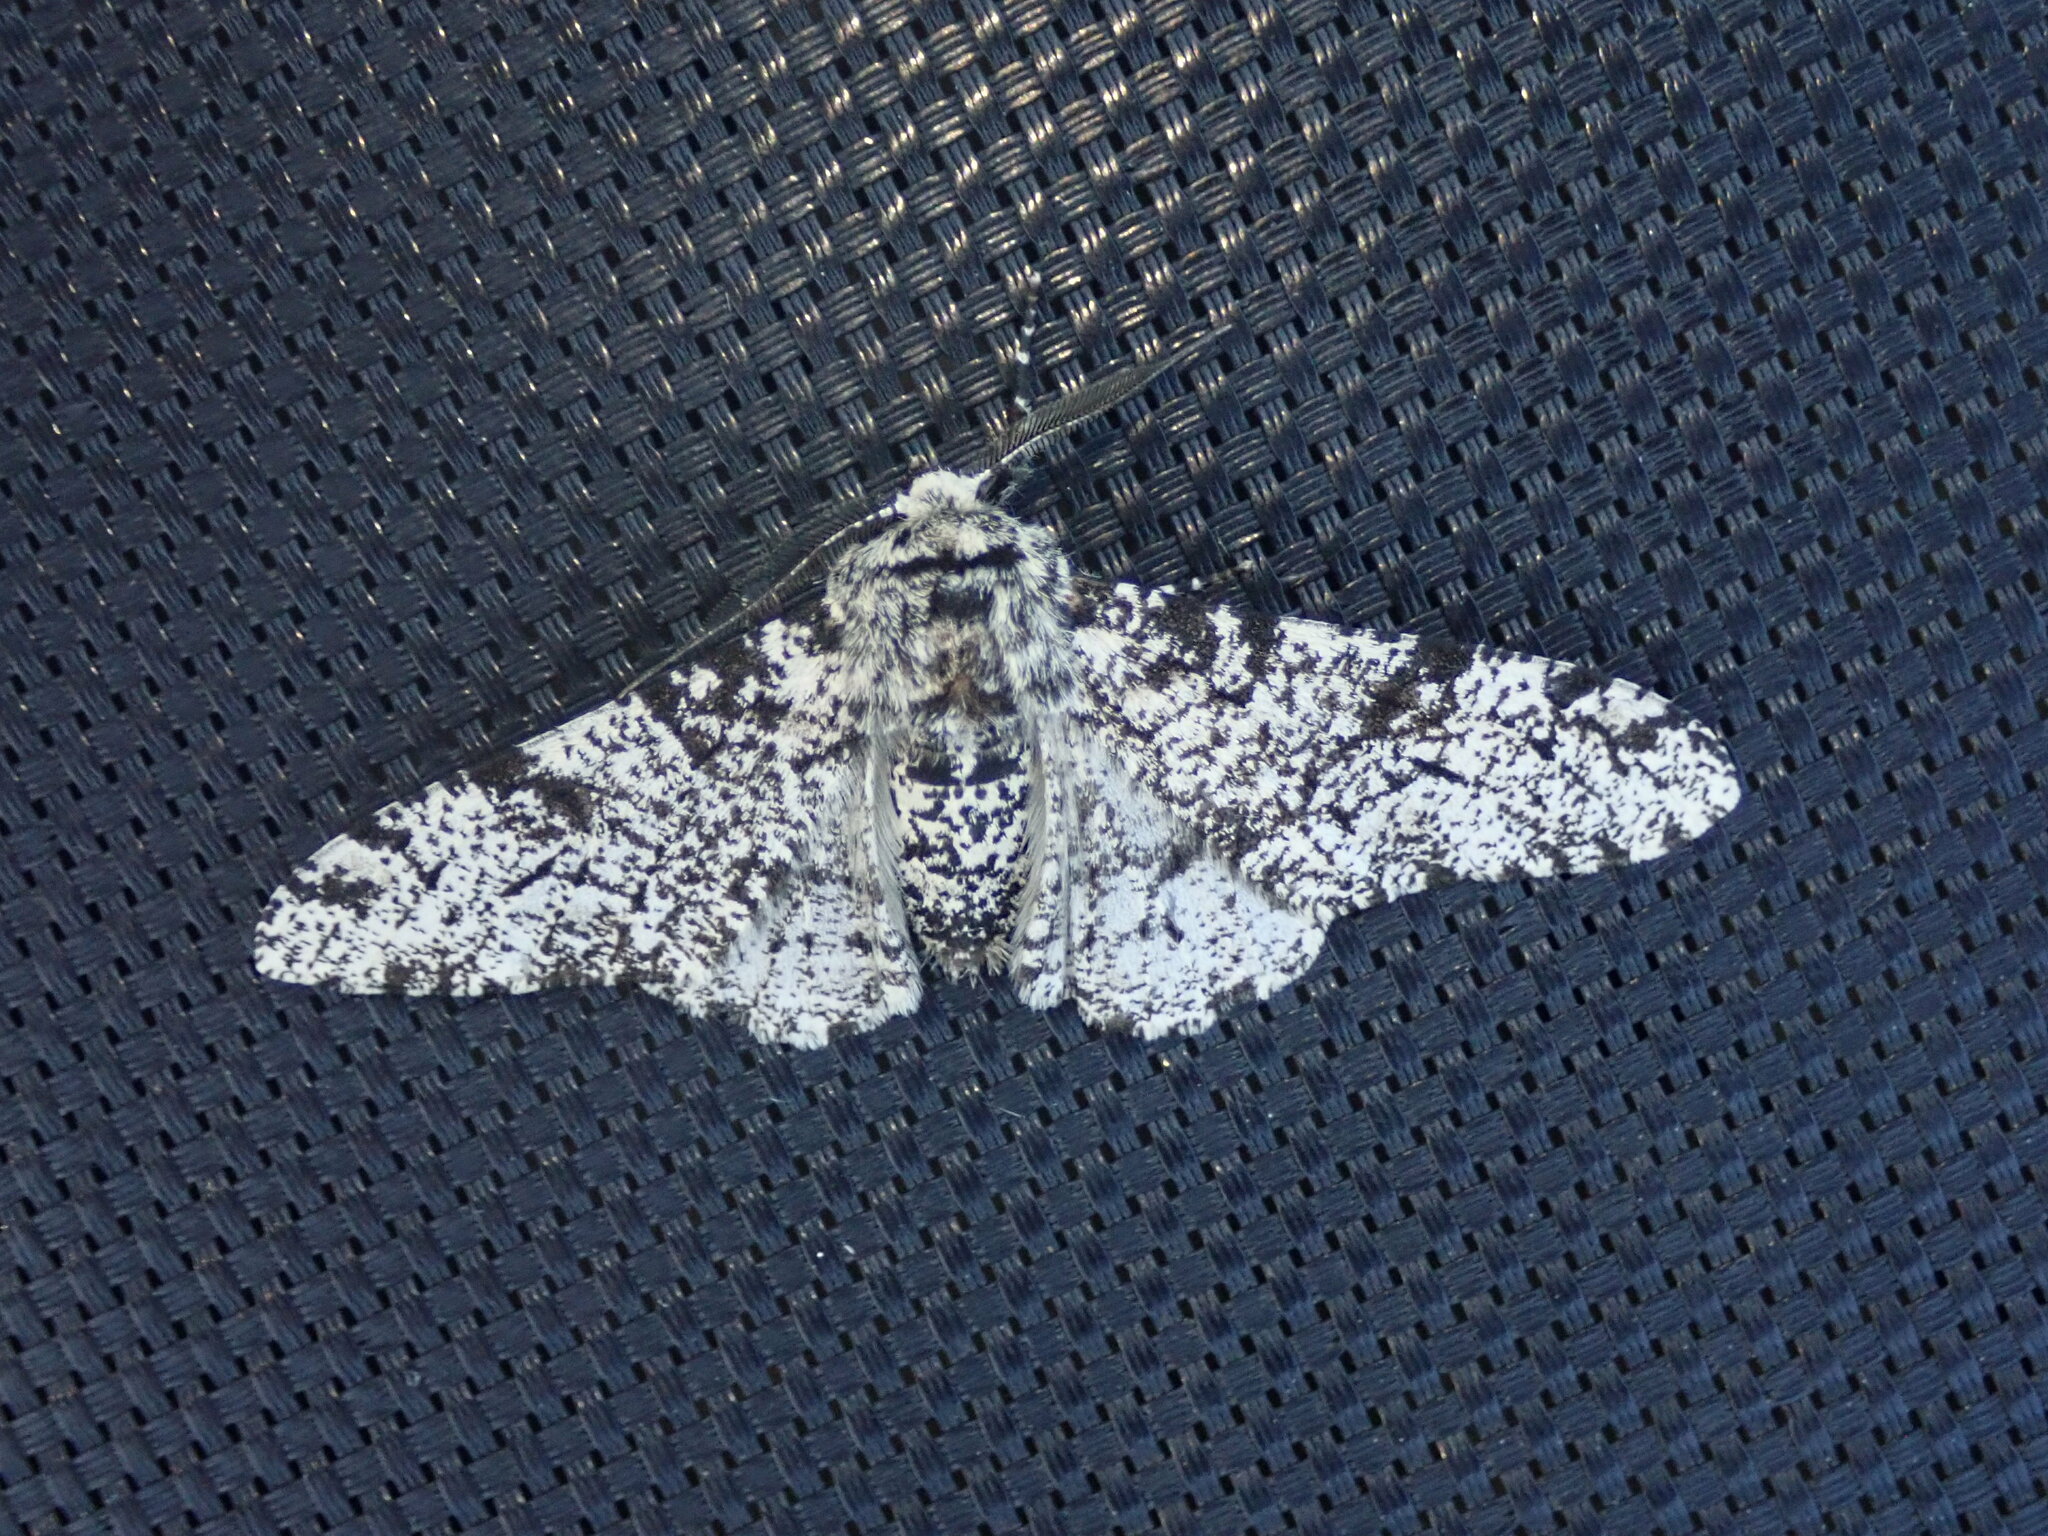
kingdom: Animalia
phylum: Arthropoda
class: Insecta
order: Lepidoptera
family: Geometridae
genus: Biston
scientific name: Biston betularia
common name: Peppered moth
